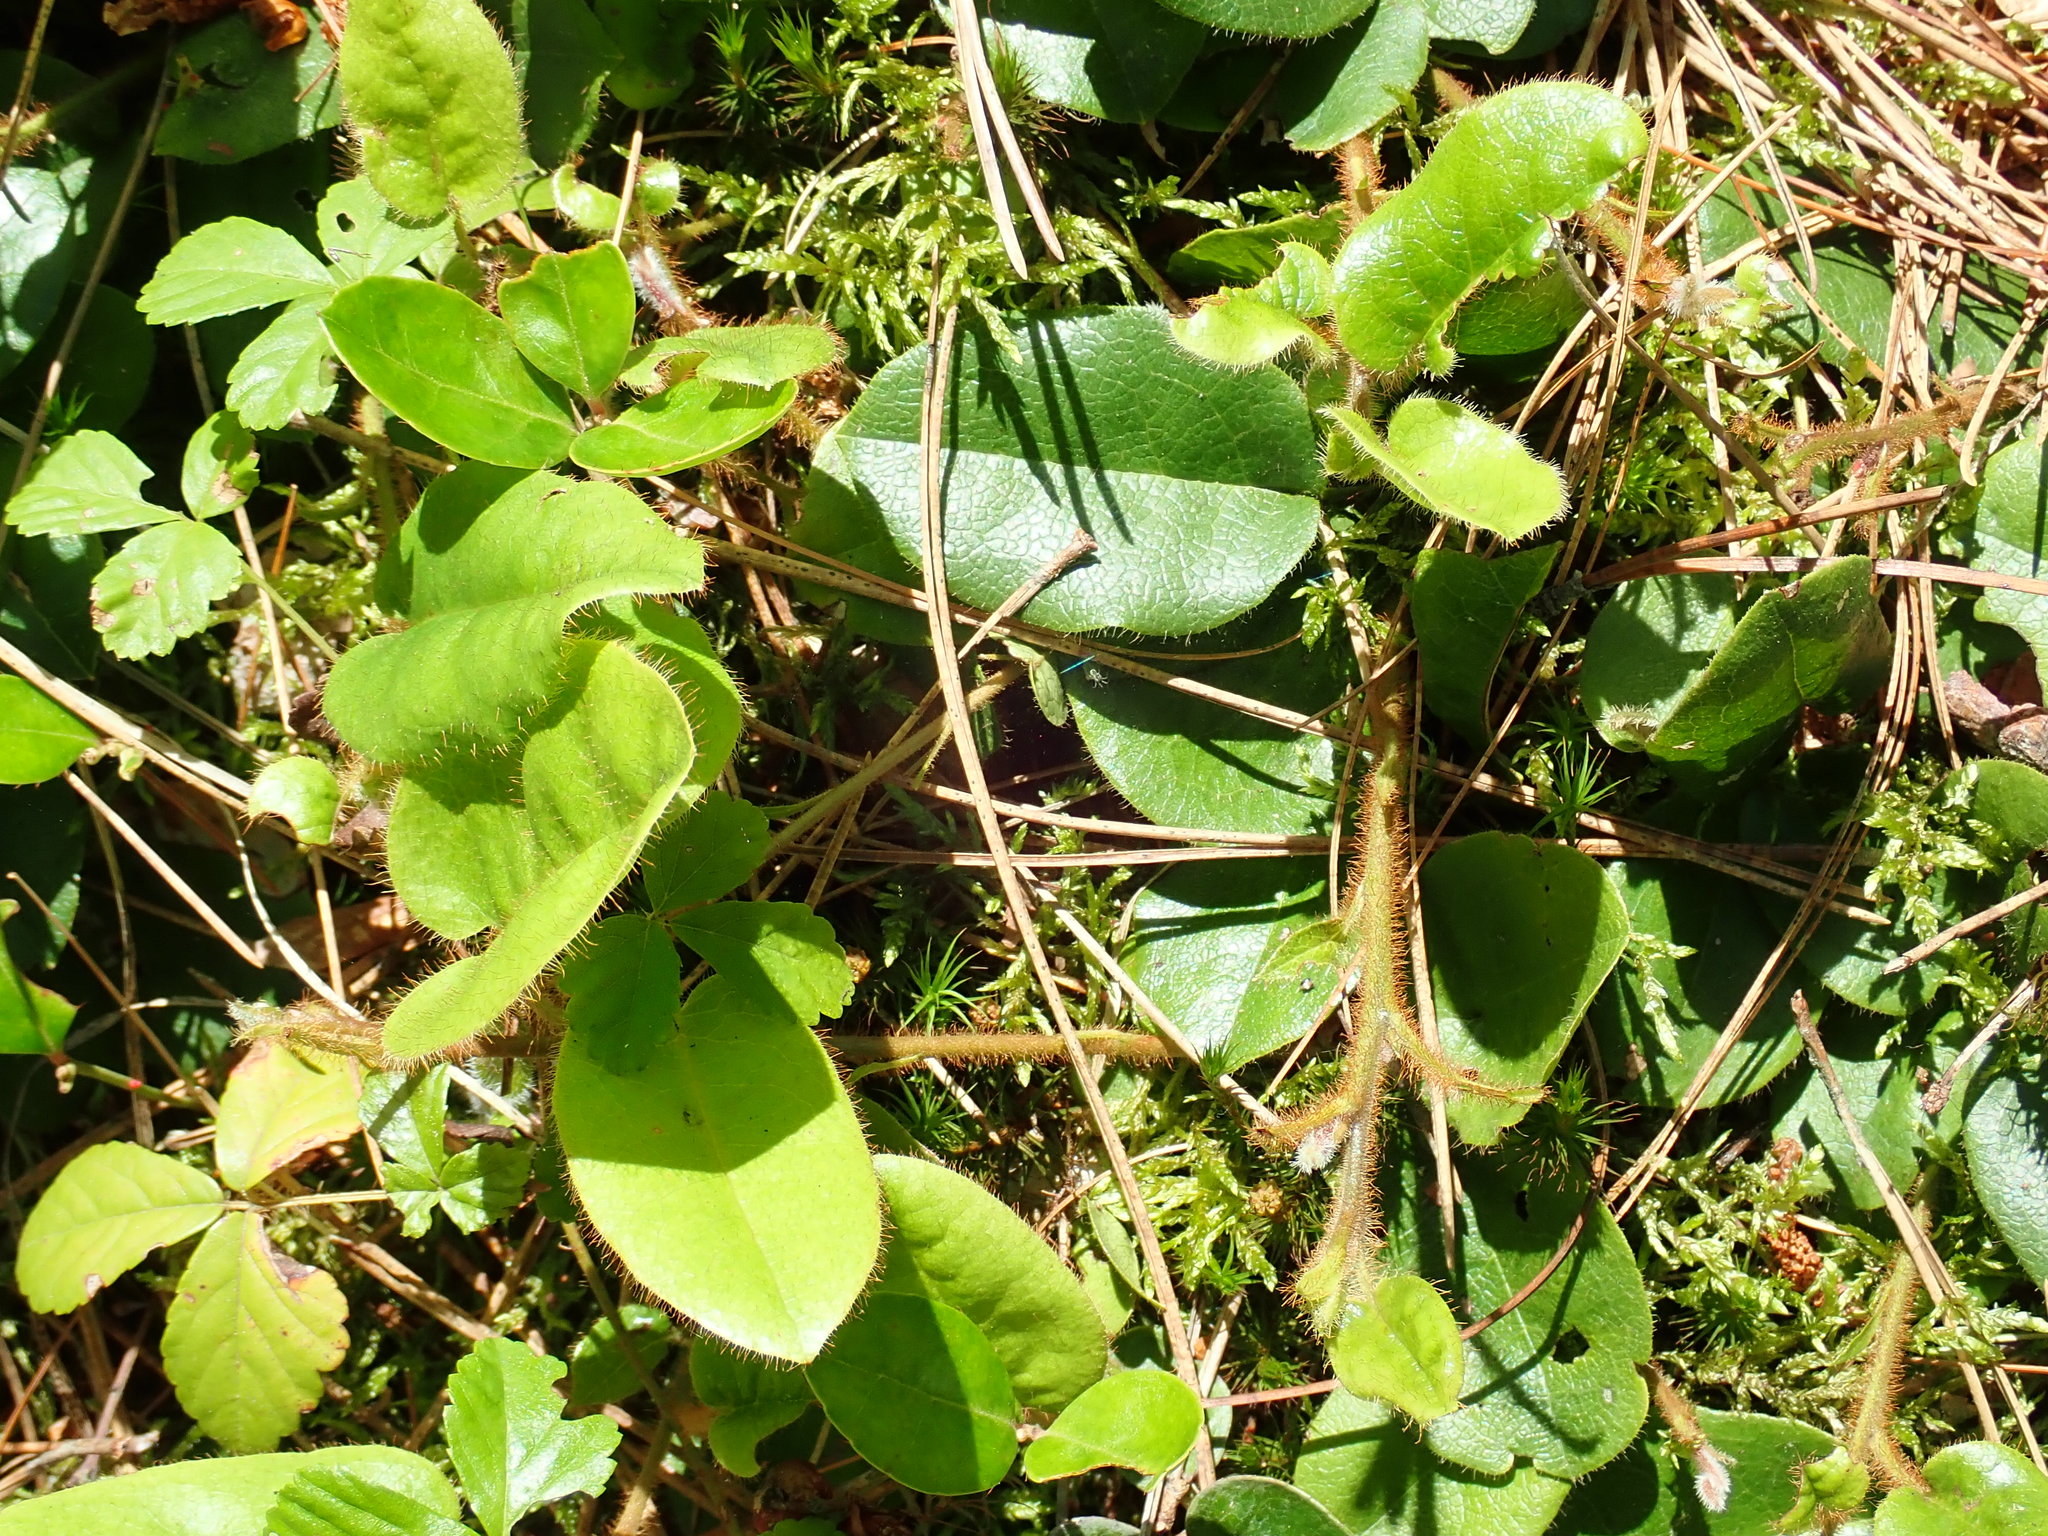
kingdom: Plantae
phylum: Tracheophyta
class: Magnoliopsida
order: Ericales
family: Ericaceae
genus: Epigaea
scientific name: Epigaea repens
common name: Gravelroot
